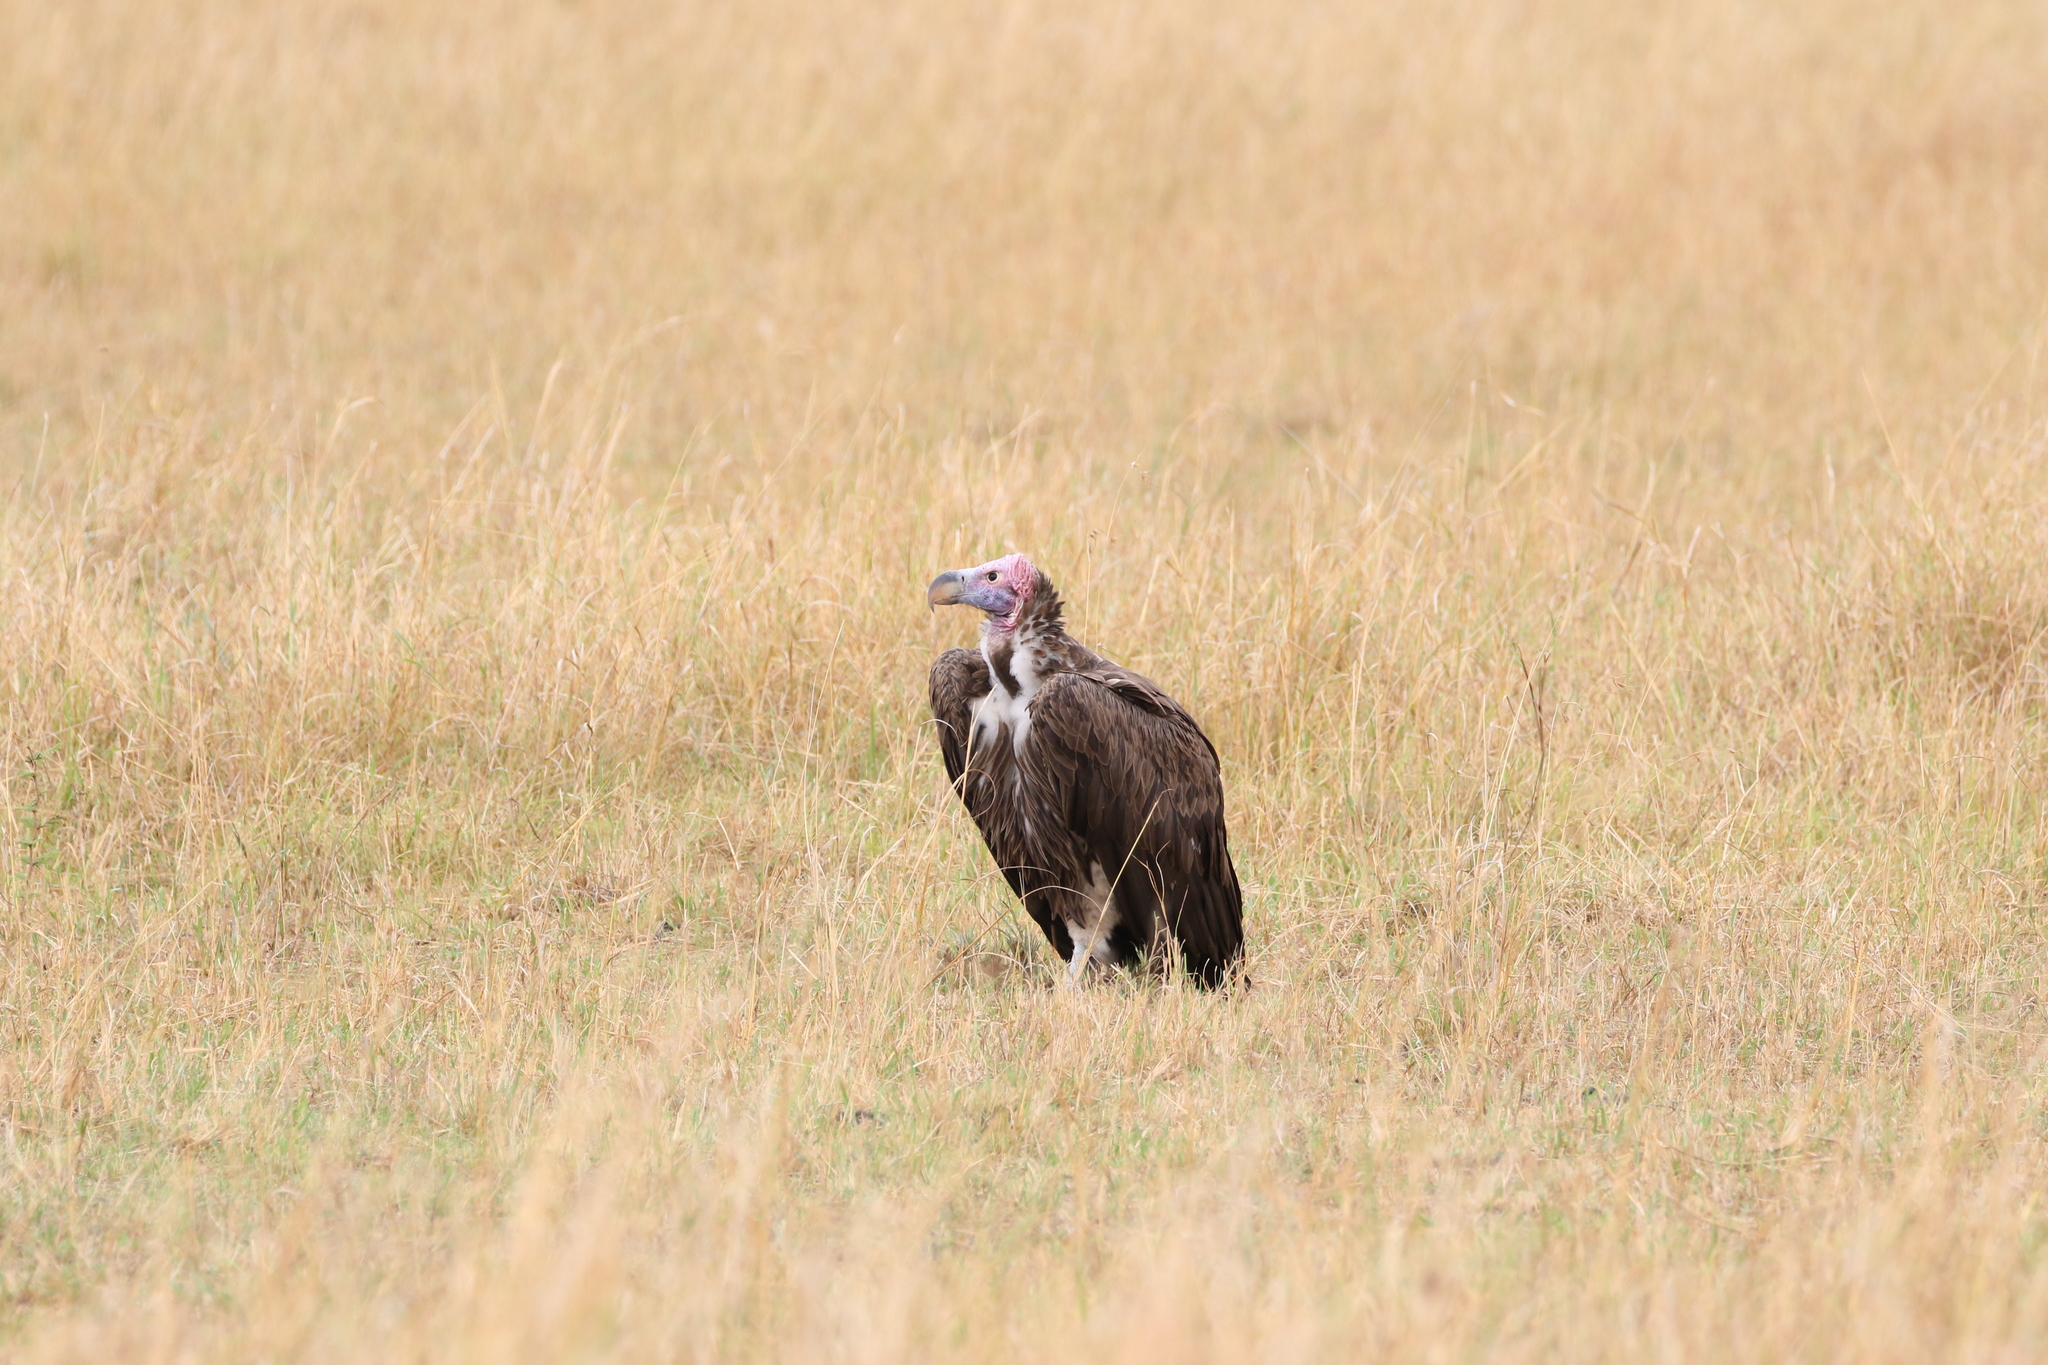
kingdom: Animalia
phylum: Chordata
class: Aves
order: Accipitriformes
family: Accipitridae
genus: Torgos
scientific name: Torgos tracheliotos
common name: Lappet-faced vulture
